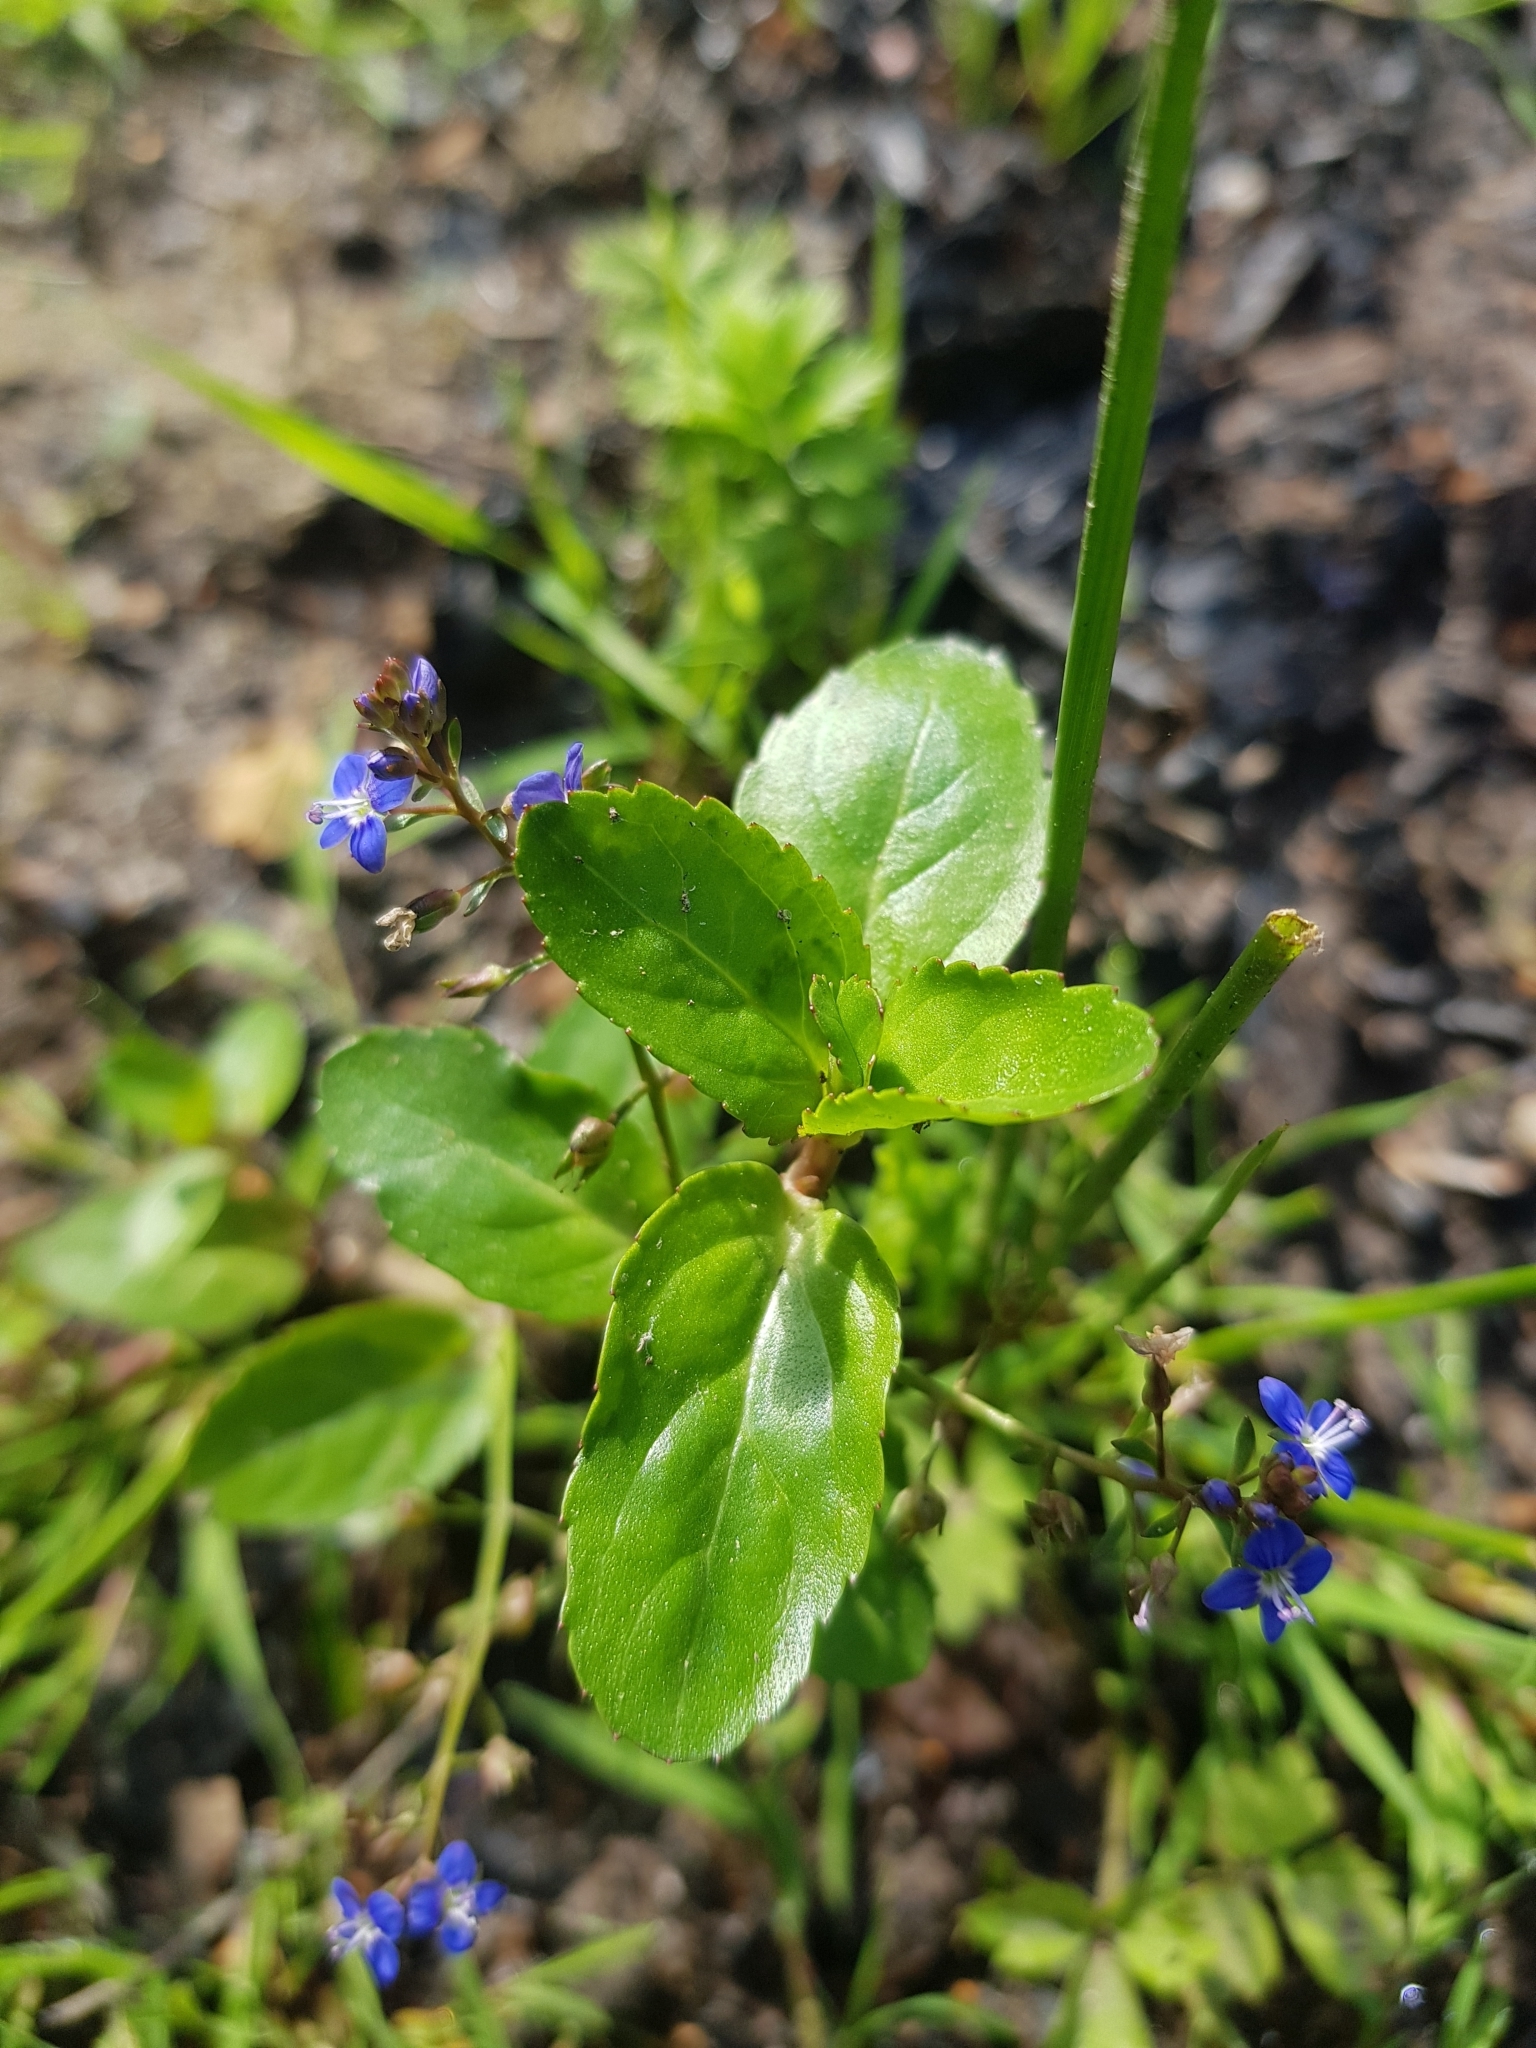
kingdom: Plantae
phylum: Tracheophyta
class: Magnoliopsida
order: Lamiales
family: Plantaginaceae
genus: Veronica
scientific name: Veronica beccabunga
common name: Brooklime
